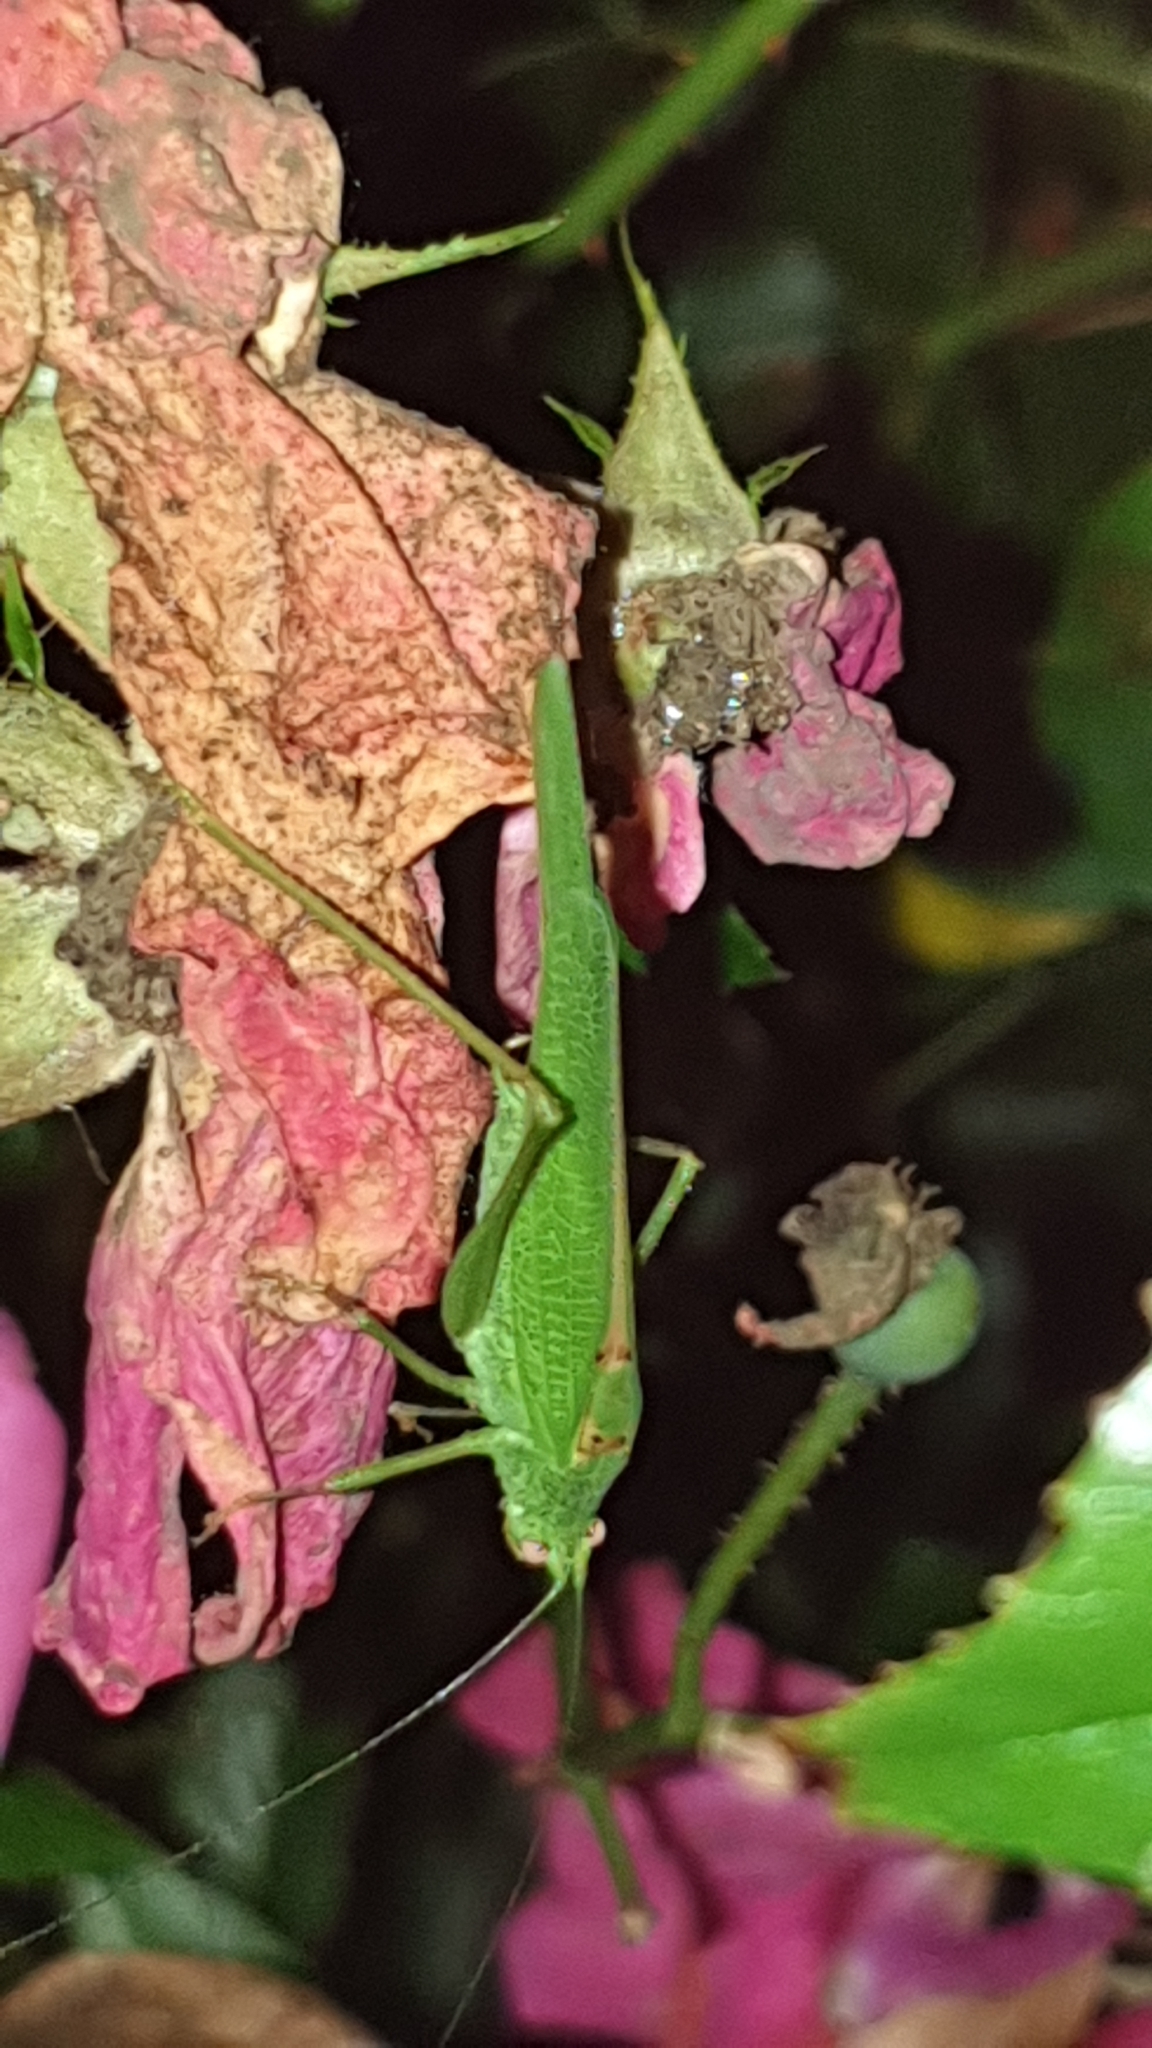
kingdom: Animalia
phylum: Arthropoda
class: Insecta
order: Orthoptera
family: Tettigoniidae
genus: Phaneroptera
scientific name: Phaneroptera nana
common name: Southern sickle bush-cricket
